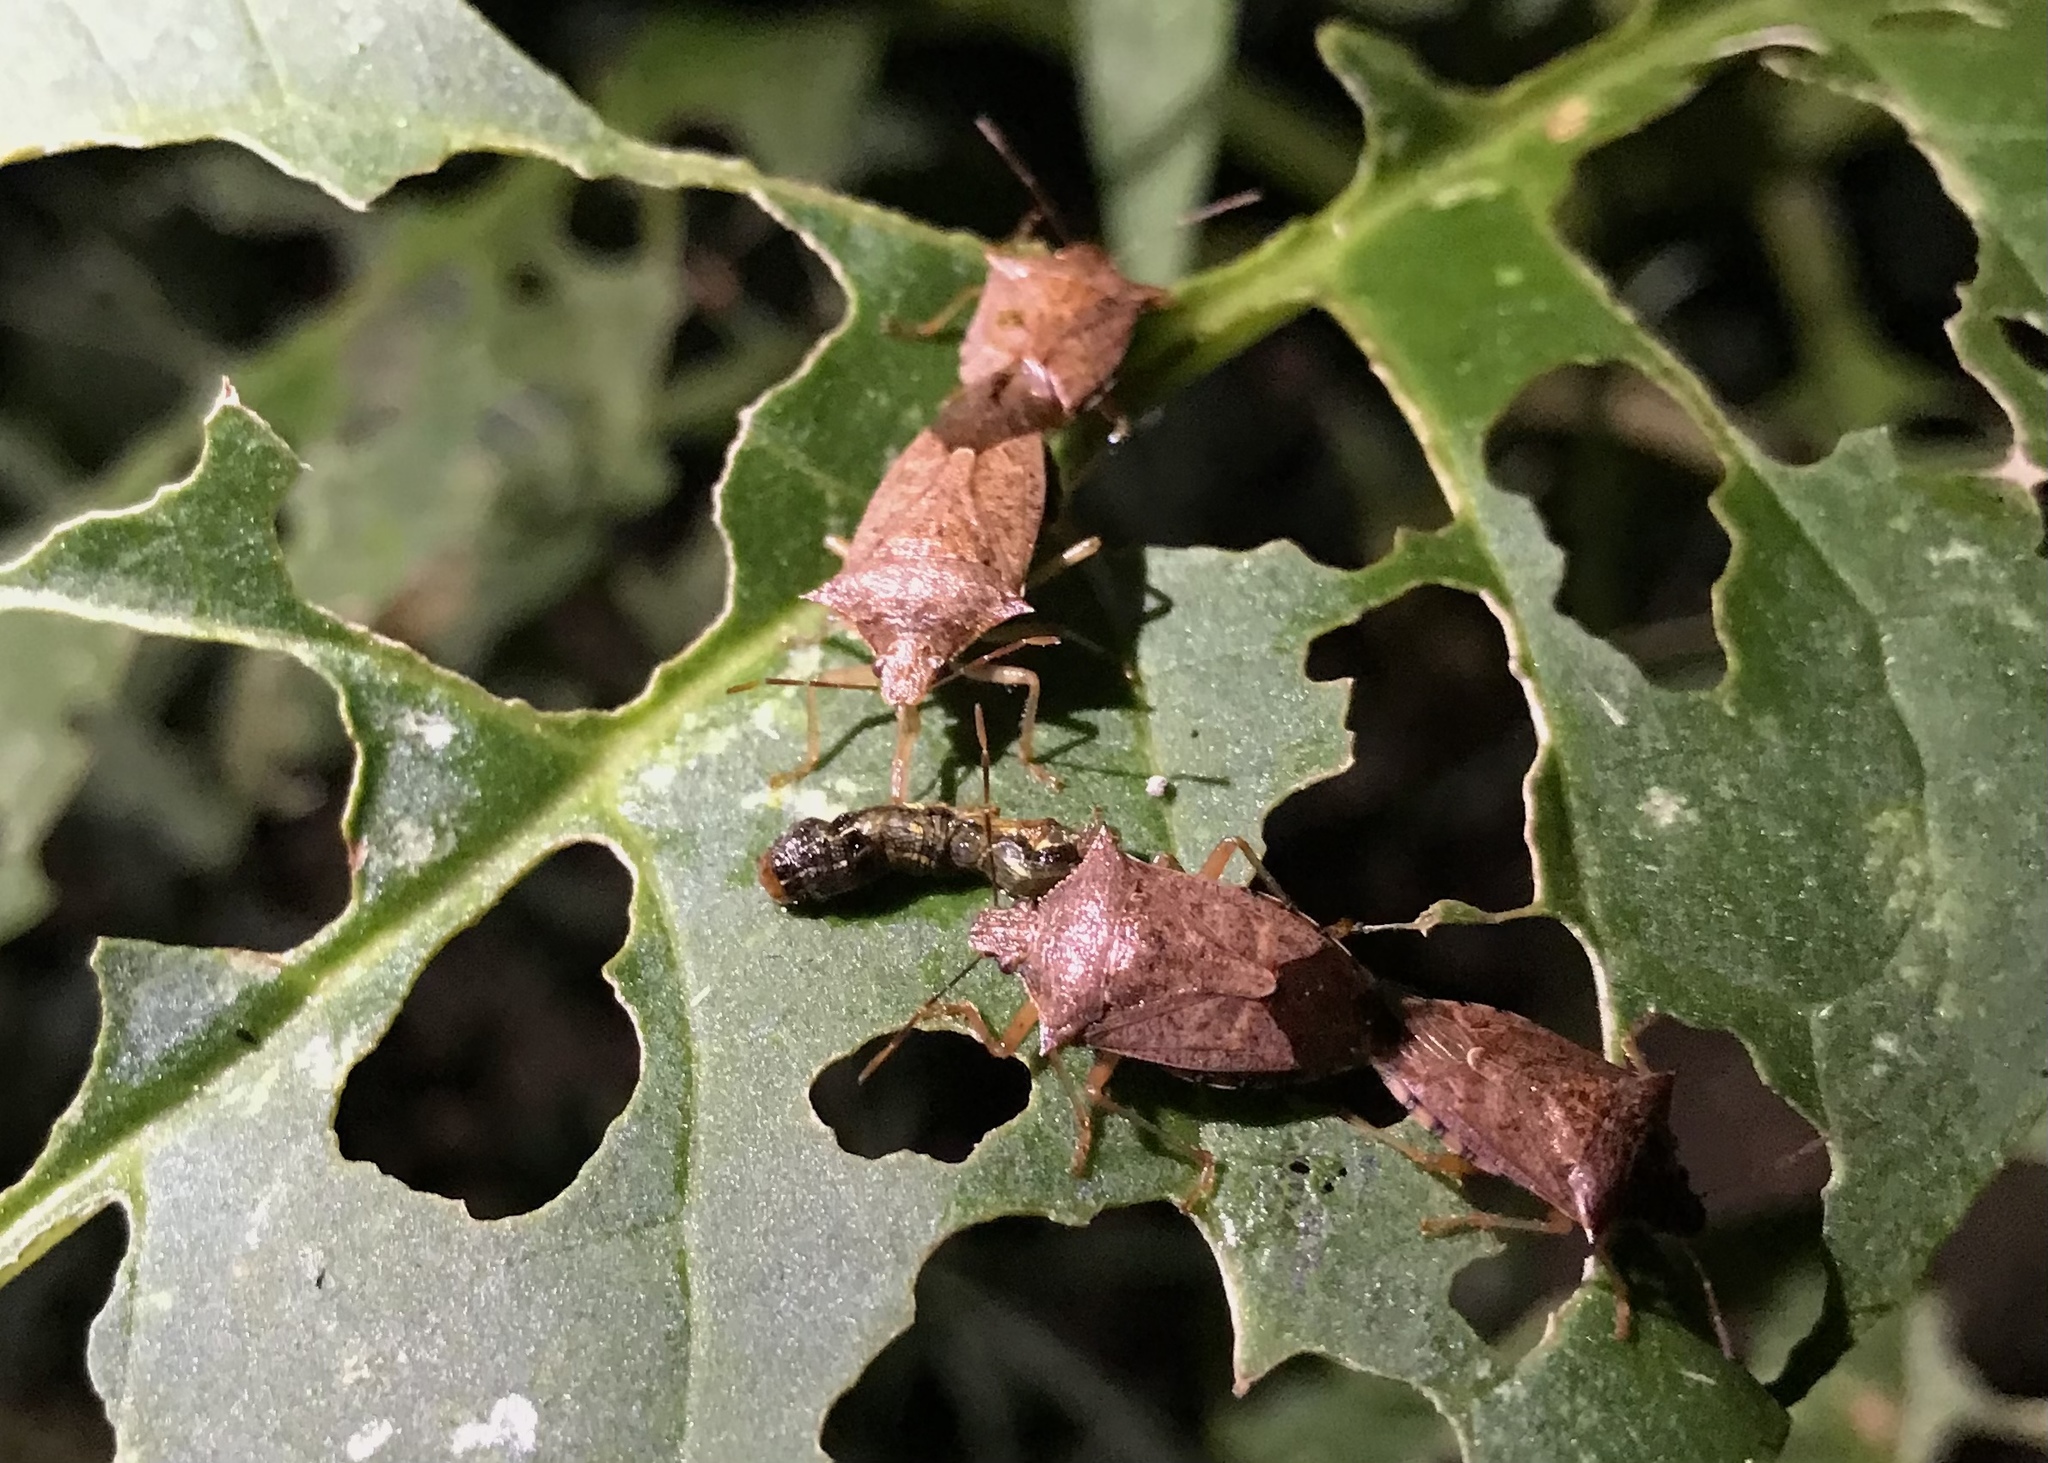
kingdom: Animalia
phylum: Arthropoda
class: Insecta
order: Hemiptera
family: Pentatomidae
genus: Podisus
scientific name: Podisus maculiventris
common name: Spined soldier bug
